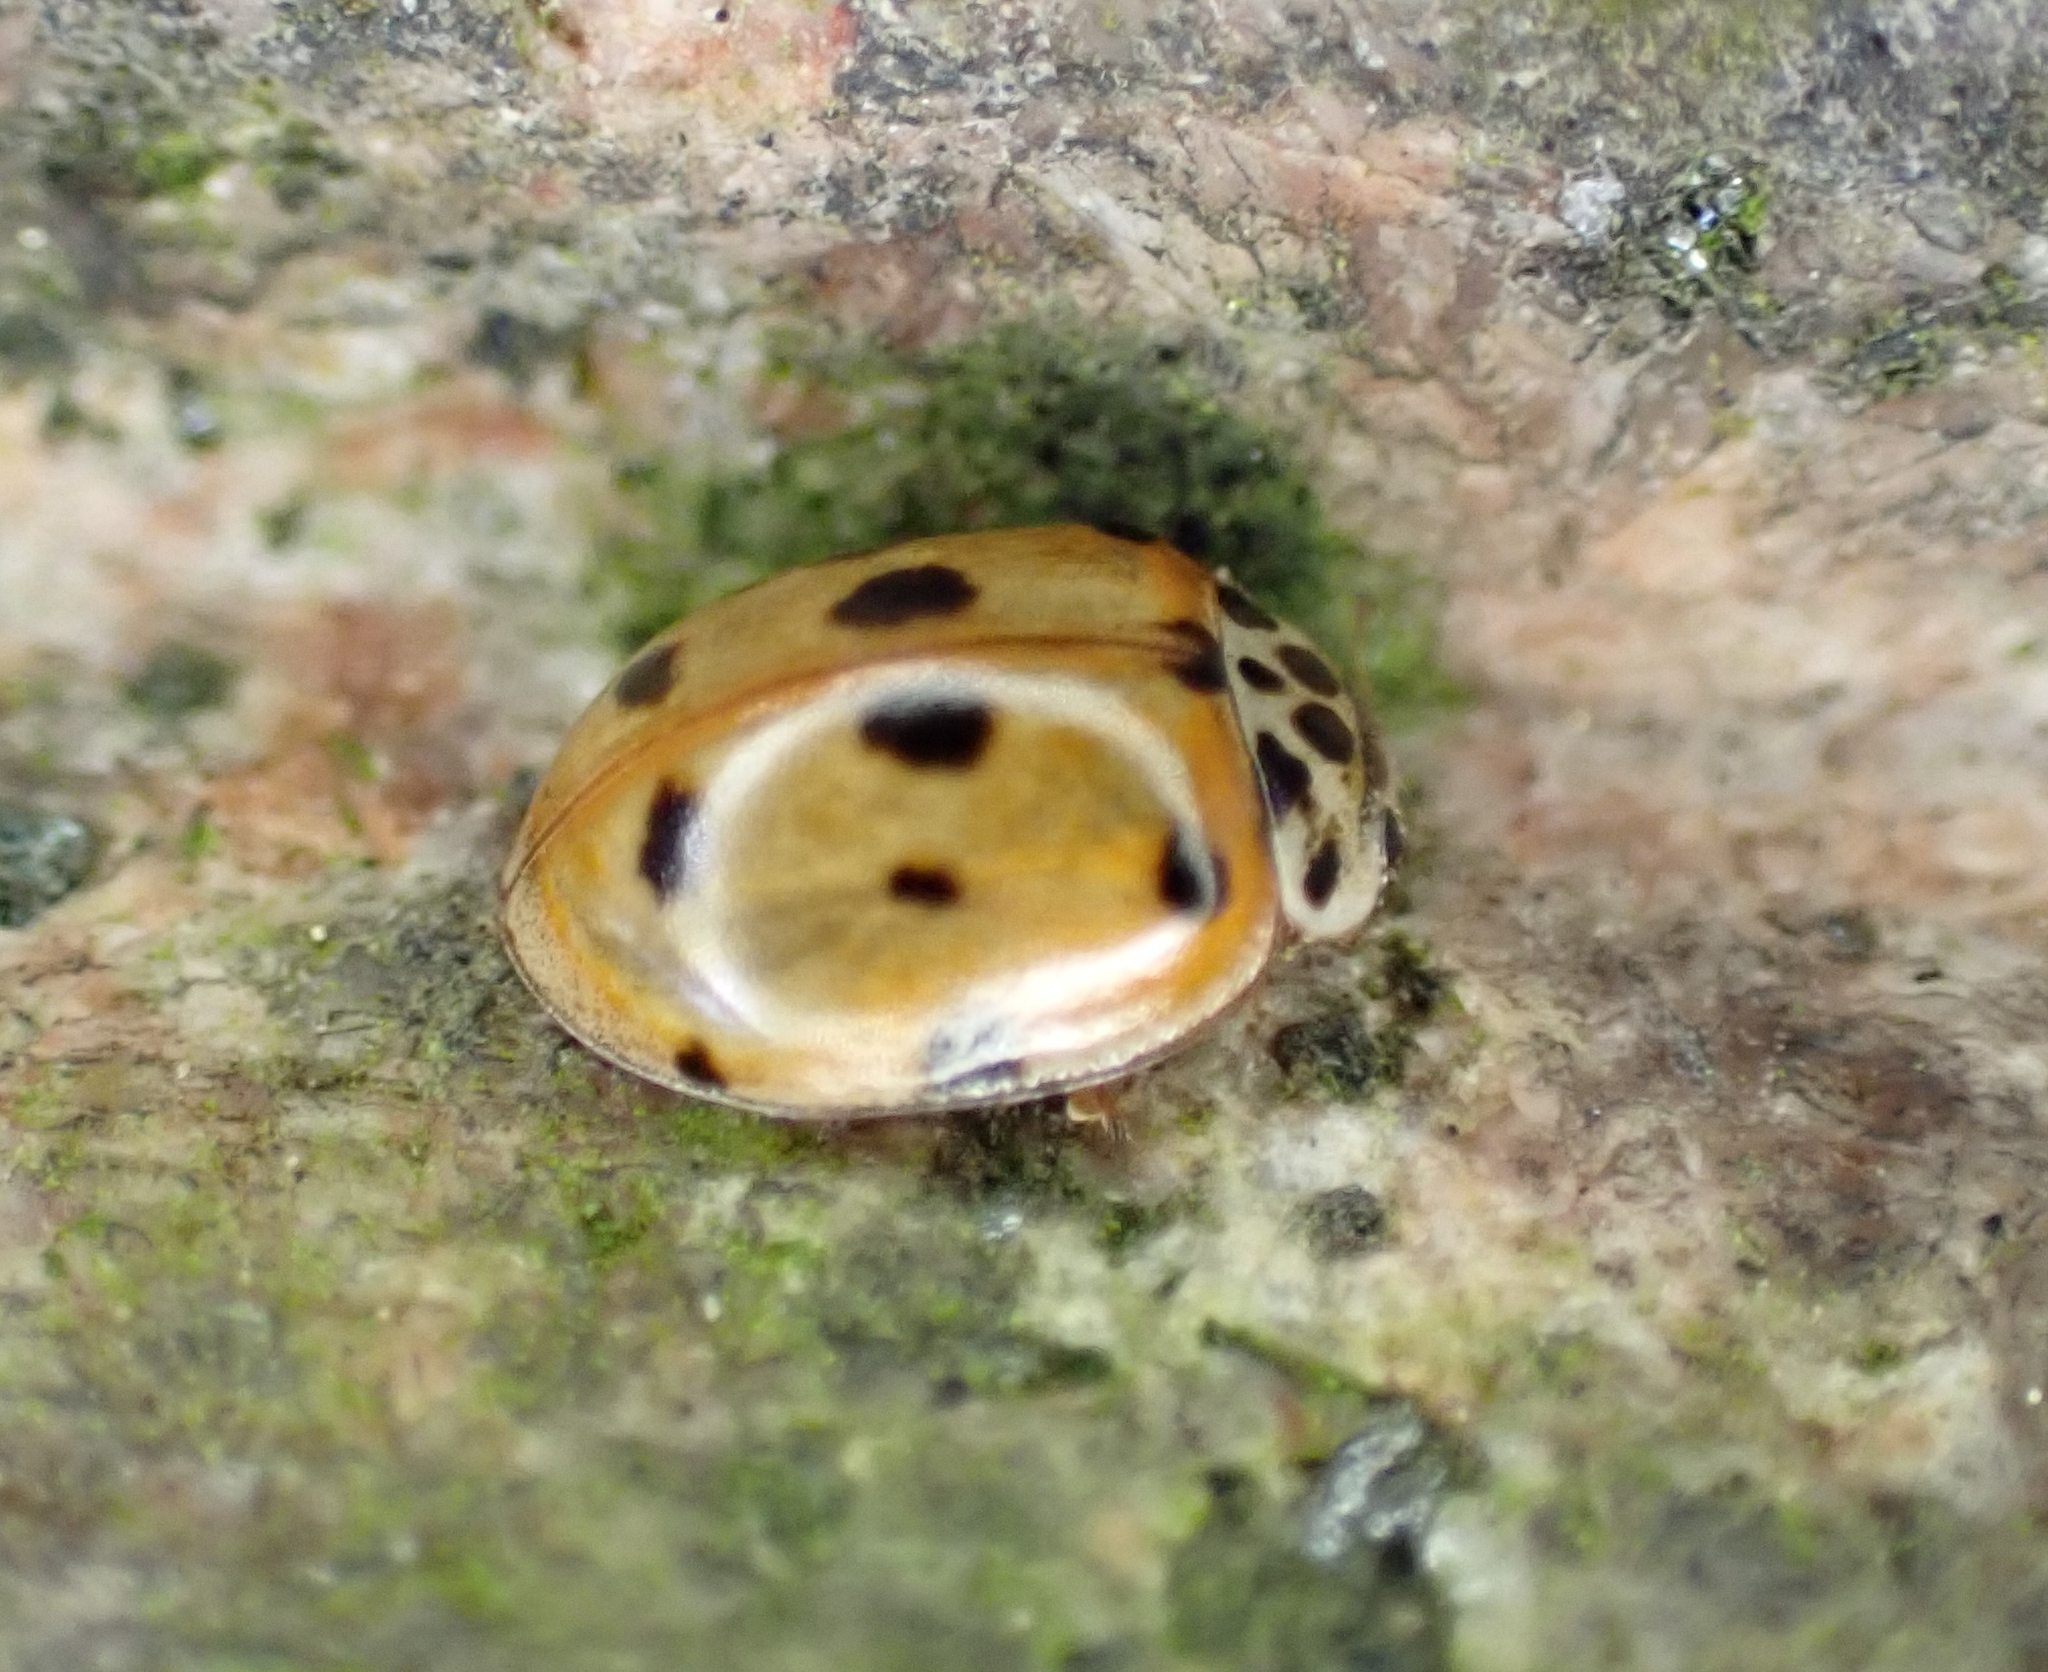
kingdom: Animalia
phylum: Arthropoda
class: Insecta
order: Coleoptera
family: Coccinellidae
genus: Adalia
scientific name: Adalia decempunctata
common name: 10-spot ladybird
